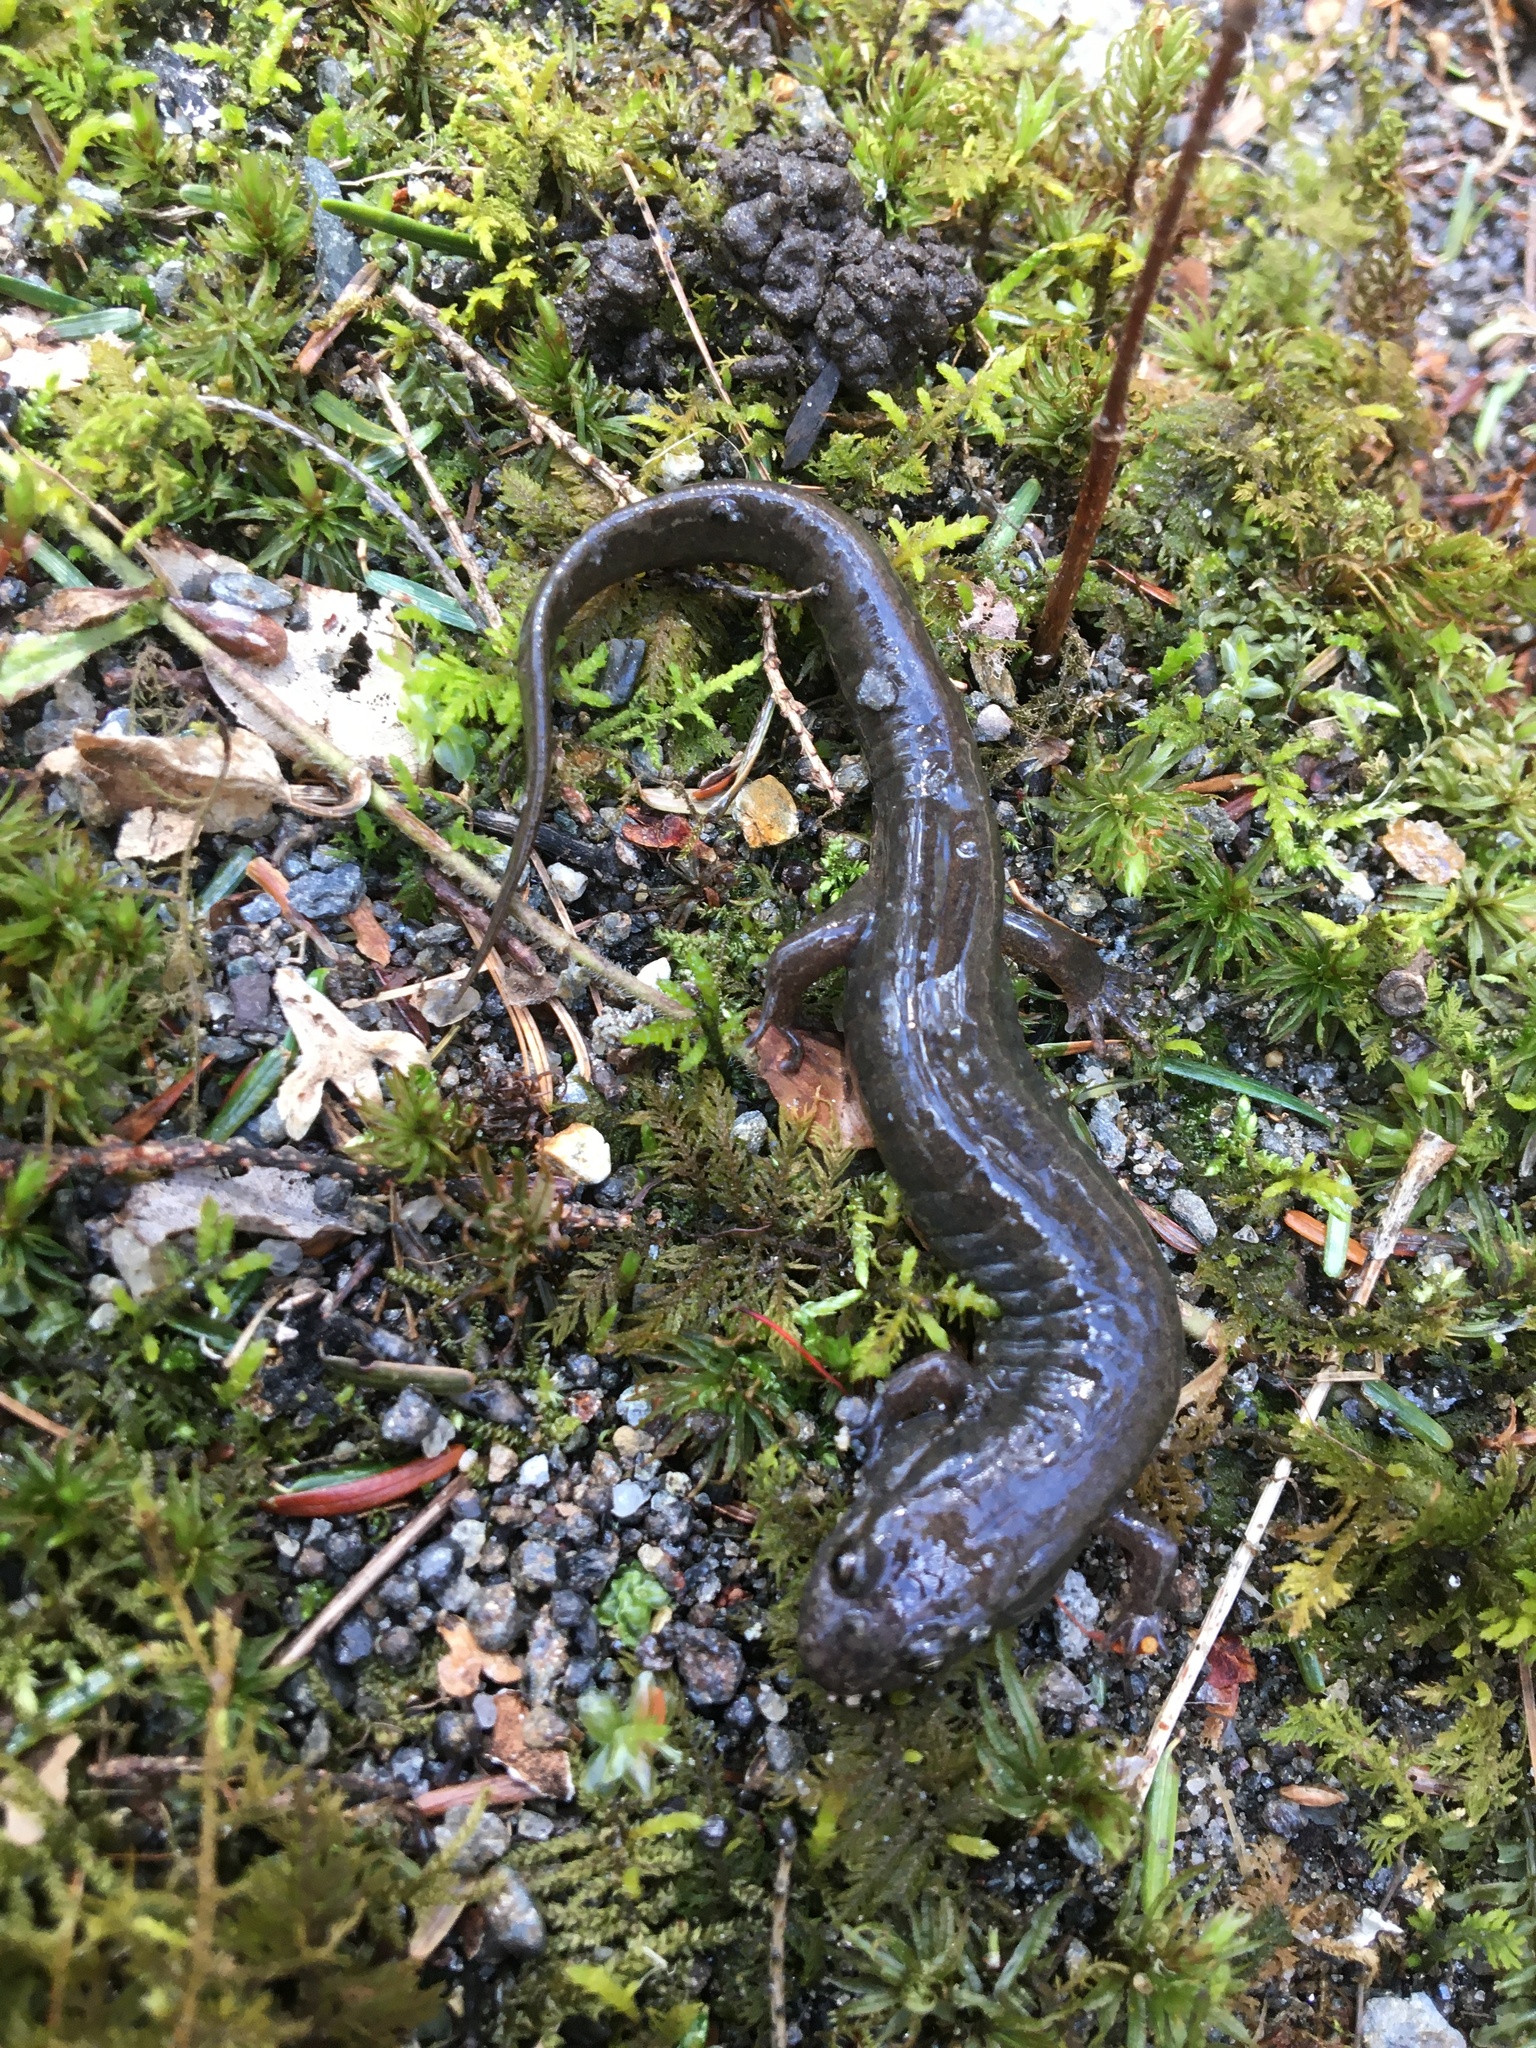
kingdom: Animalia
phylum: Chordata
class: Amphibia
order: Caudata
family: Plethodontidae
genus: Desmognathus
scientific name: Desmognathus fuscus
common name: Northern dusky salamander
